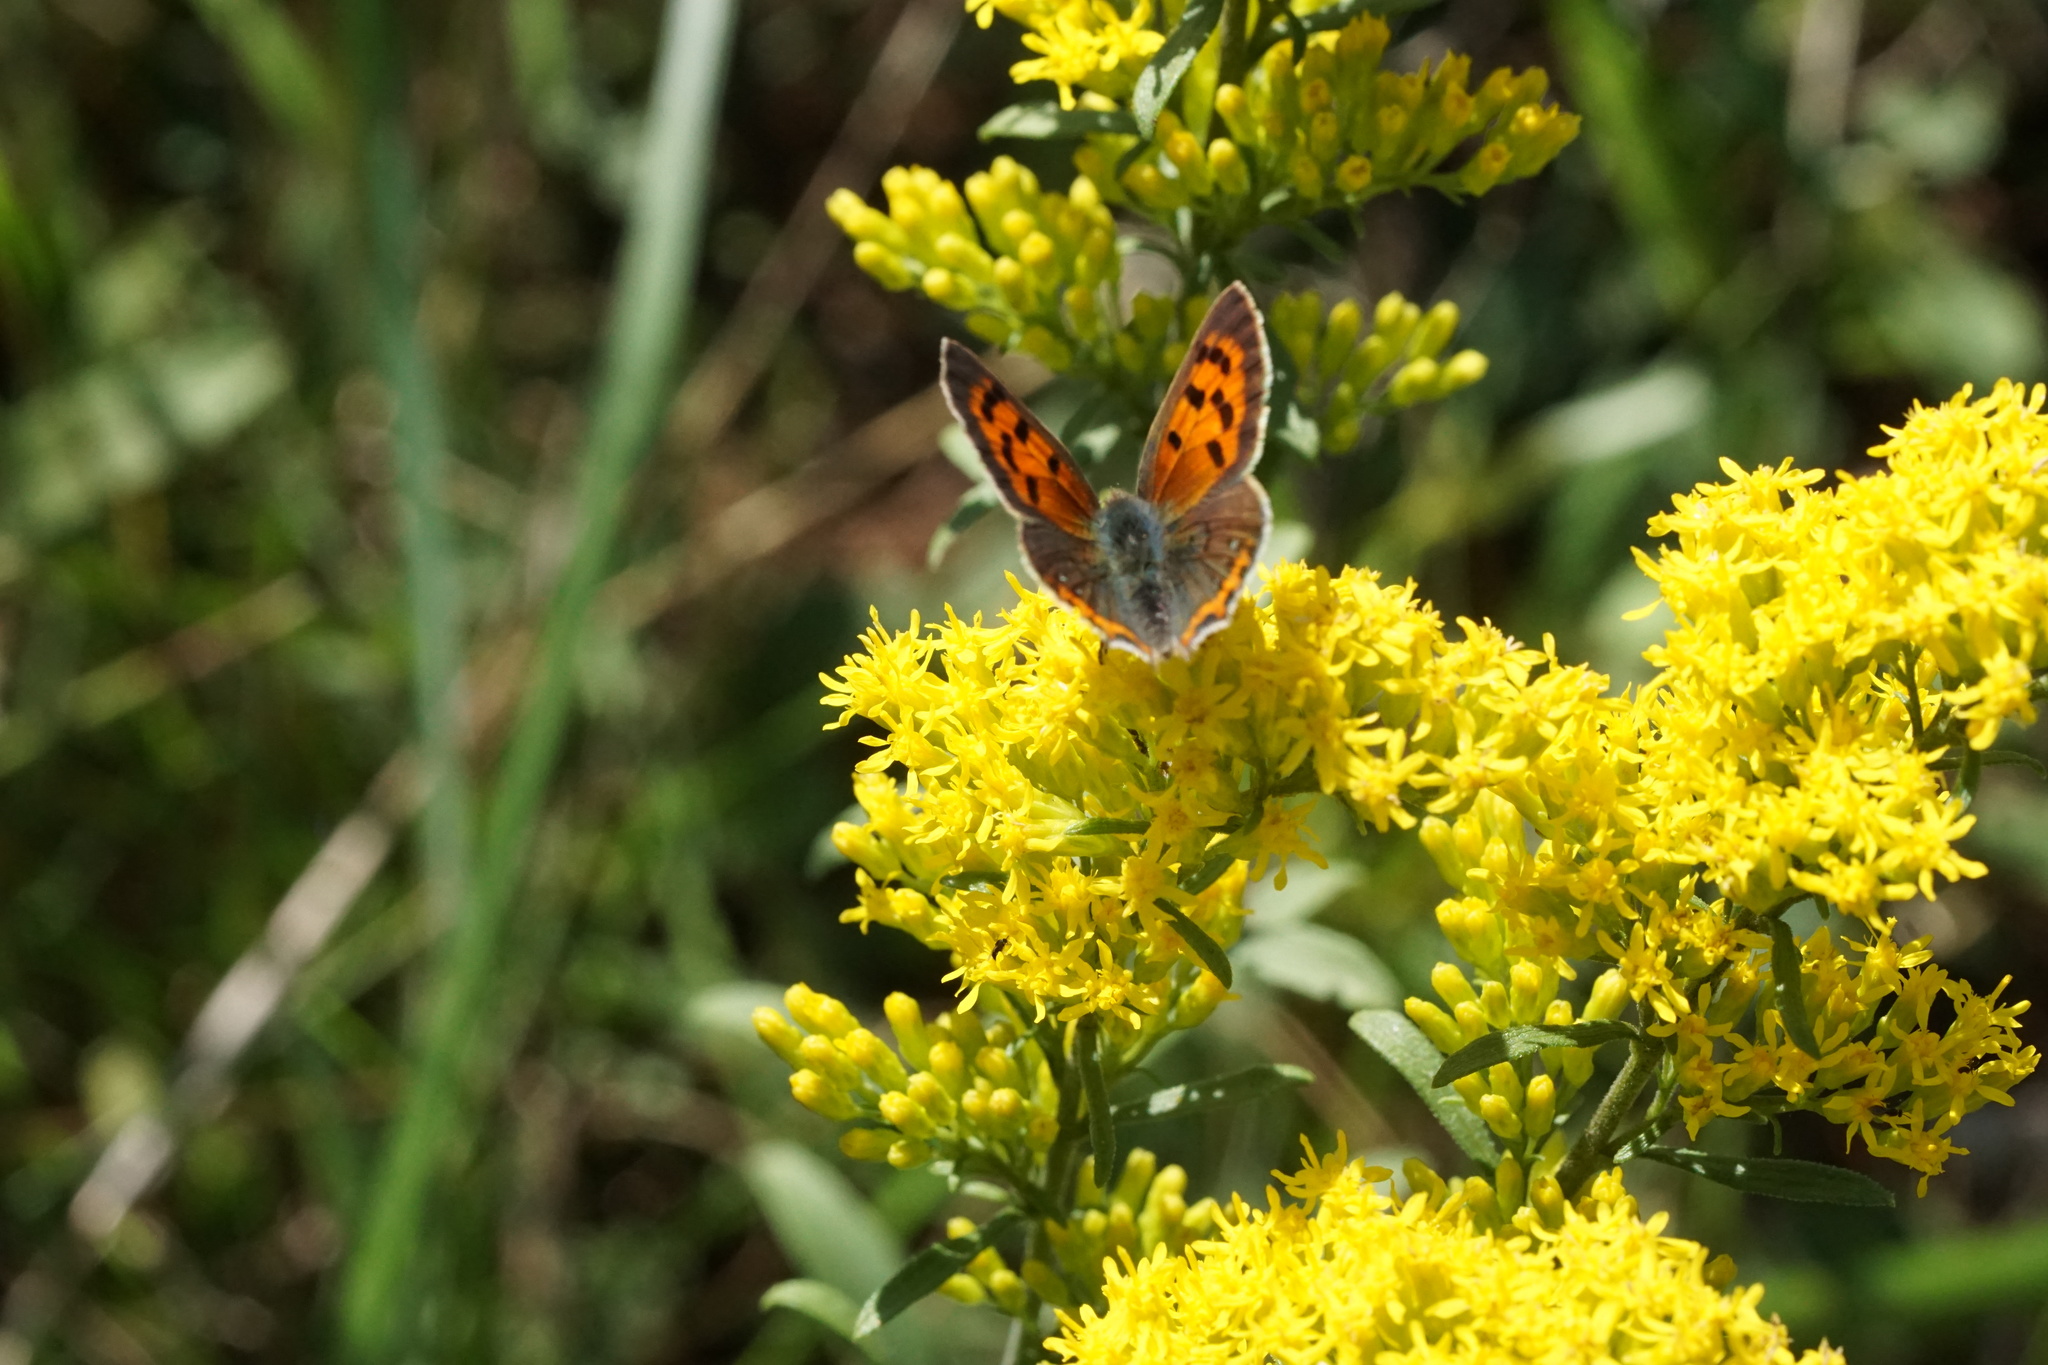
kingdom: Animalia
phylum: Arthropoda
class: Insecta
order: Lepidoptera
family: Lycaenidae
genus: Lycaena
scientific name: Lycaena hypophlaeas
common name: American copper
